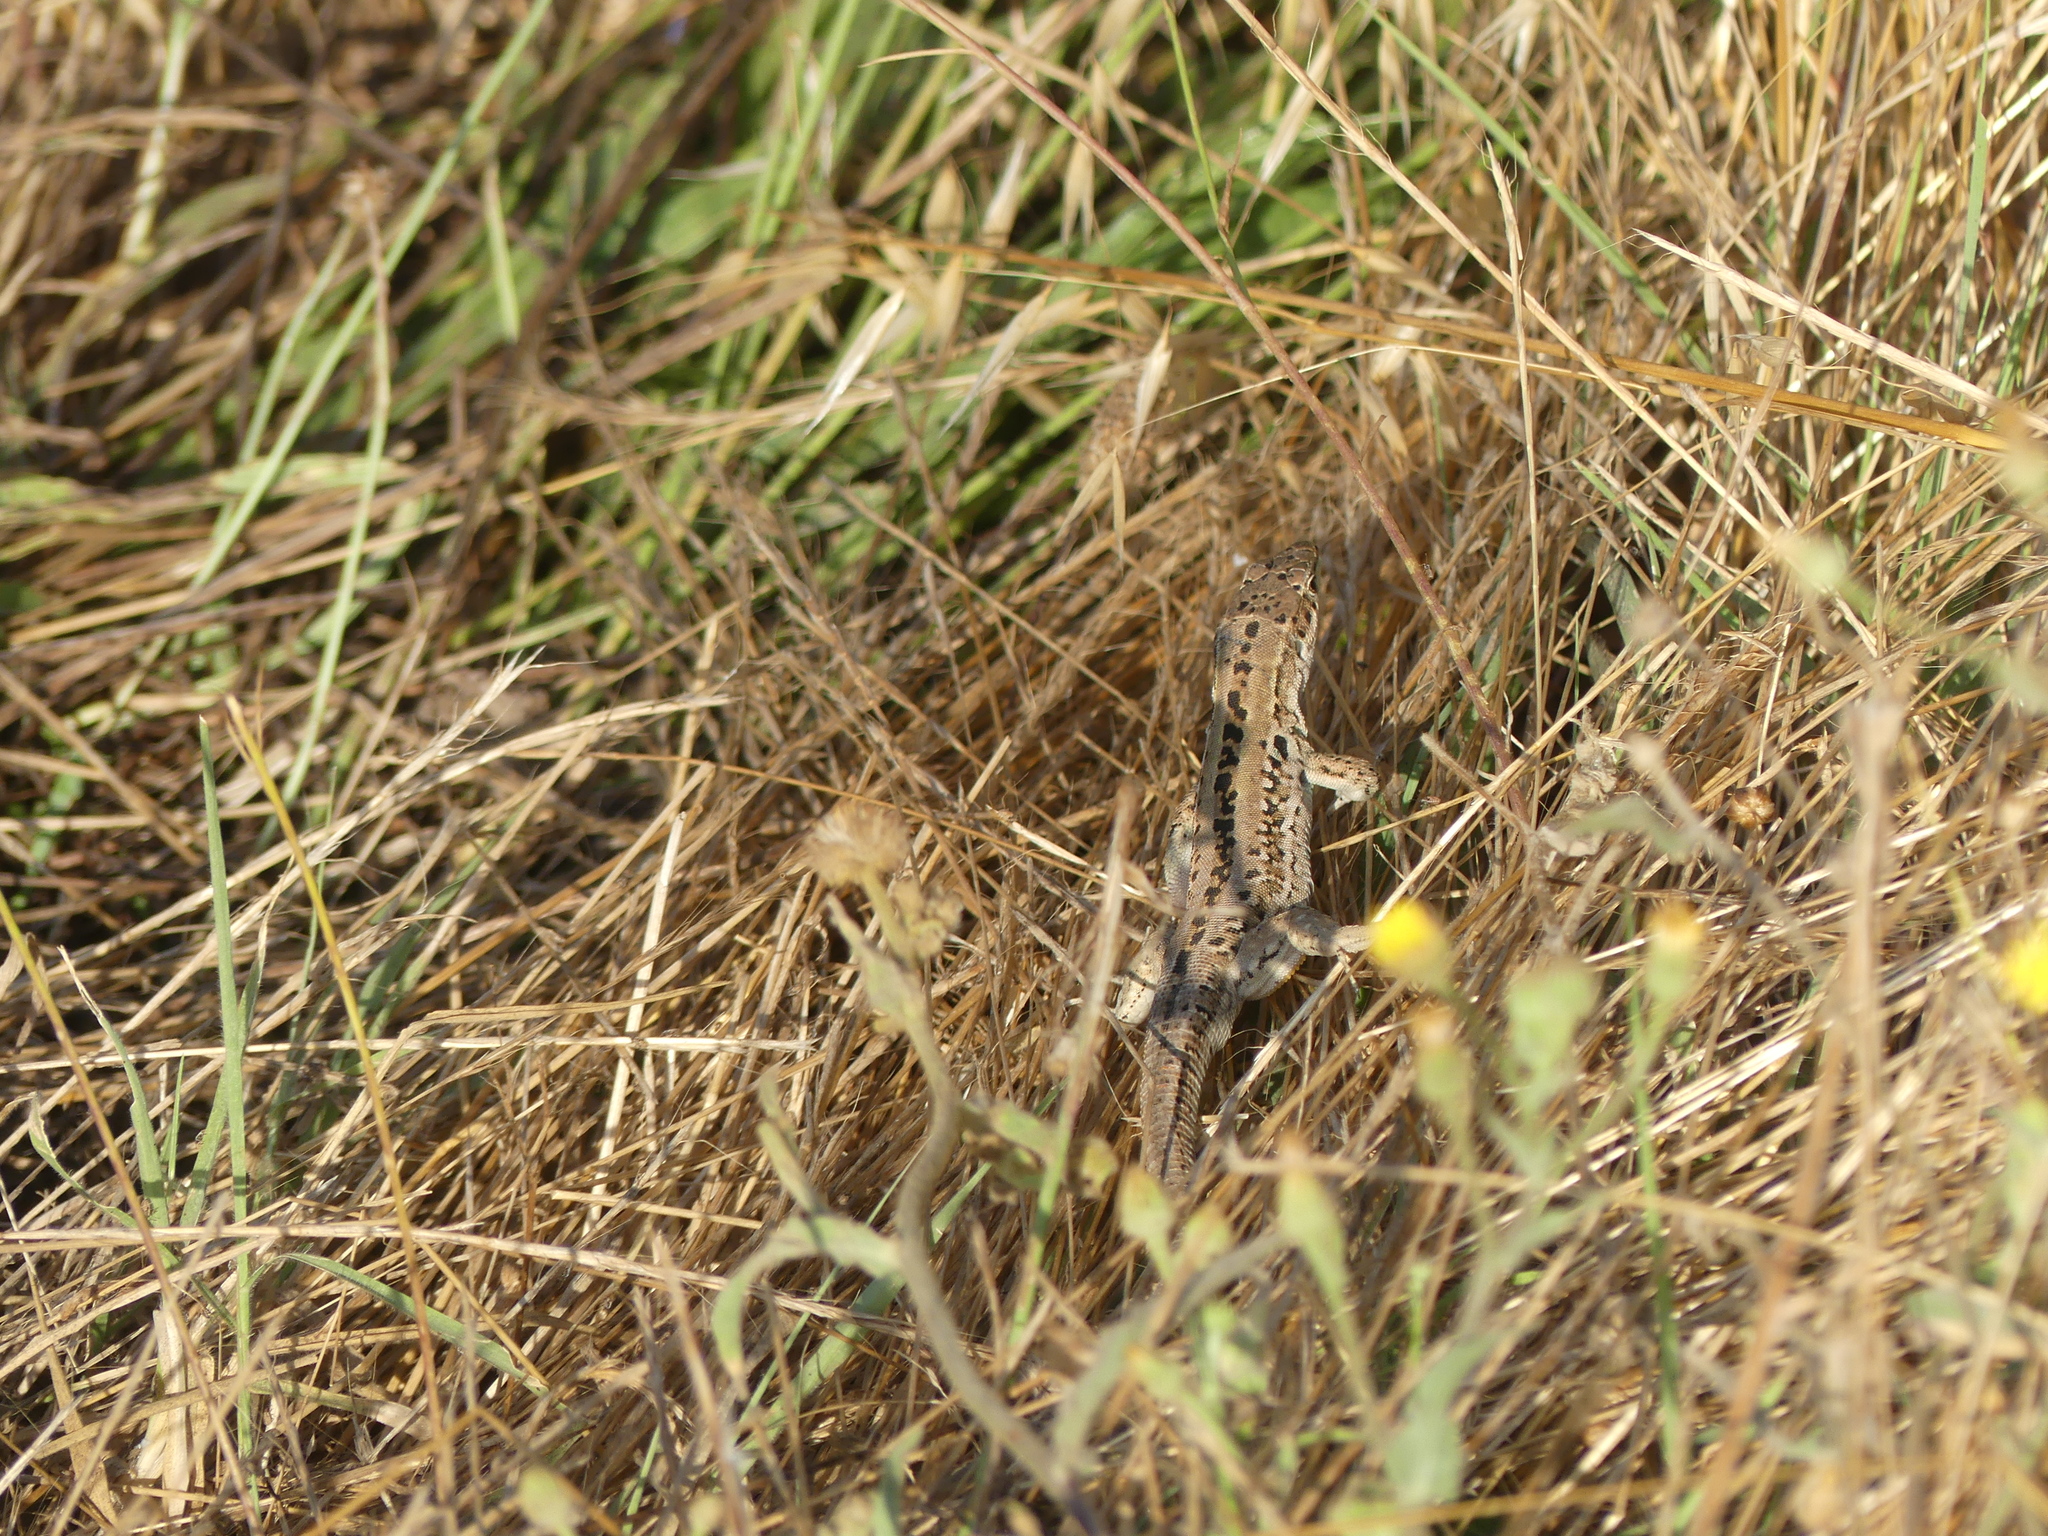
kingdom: Animalia
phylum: Chordata
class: Squamata
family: Lacertidae
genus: Podarcis
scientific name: Podarcis siculus
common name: Italian wall lizard
